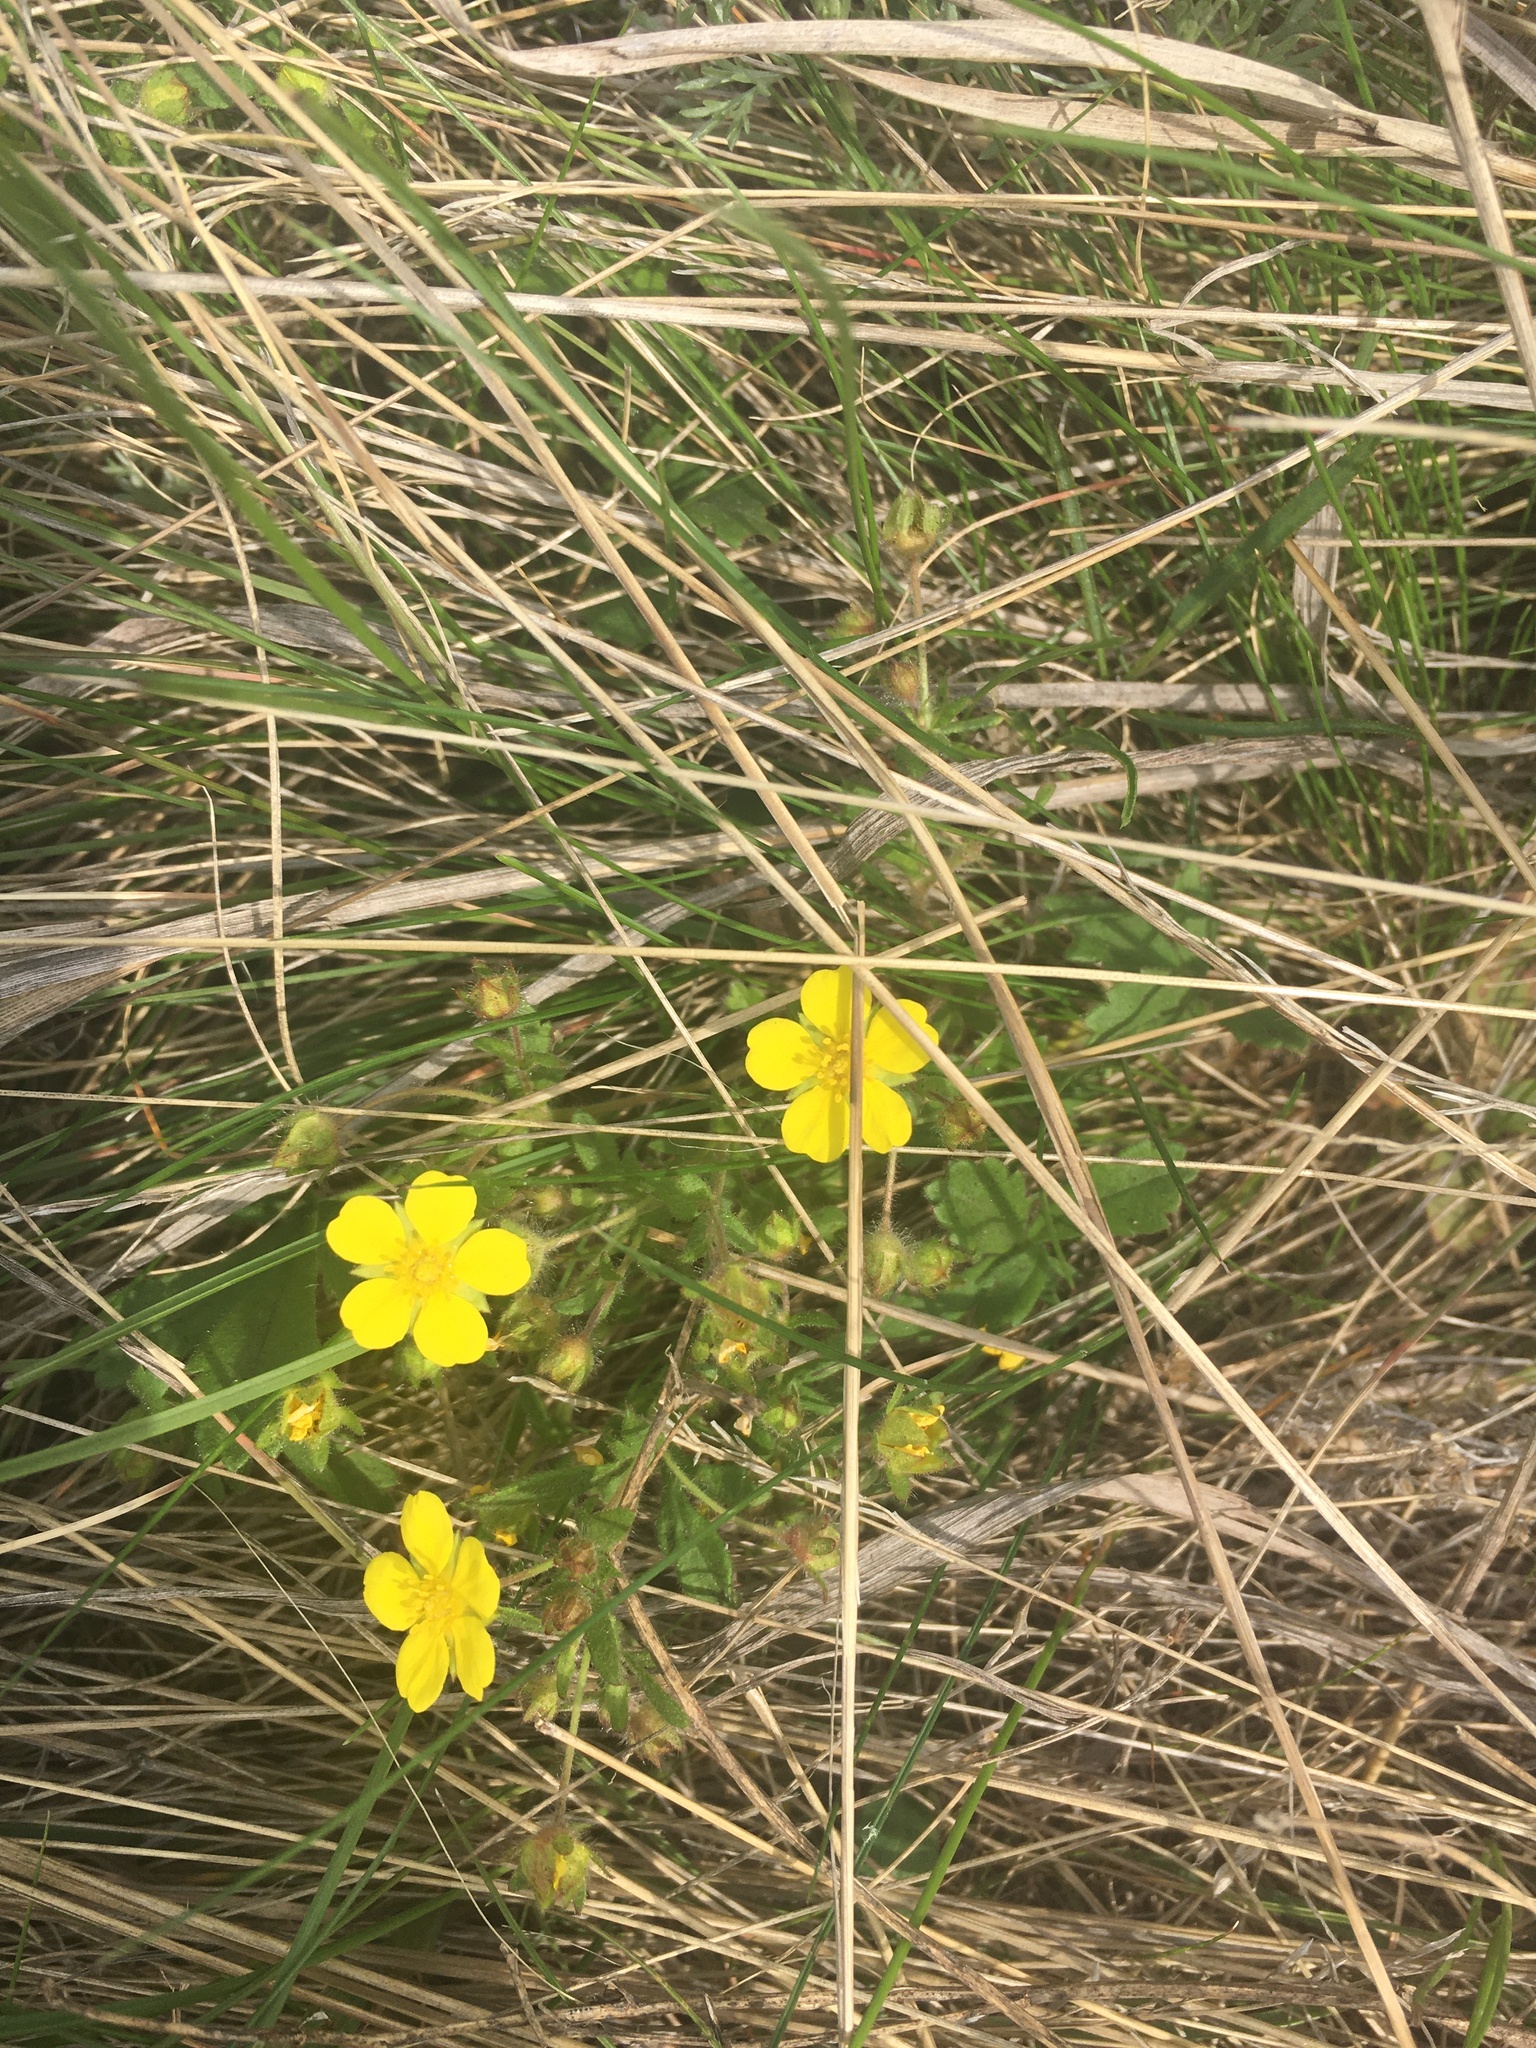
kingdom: Plantae
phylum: Tracheophyta
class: Magnoliopsida
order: Rosales
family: Rosaceae
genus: Potentilla
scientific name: Potentilla humifusa
